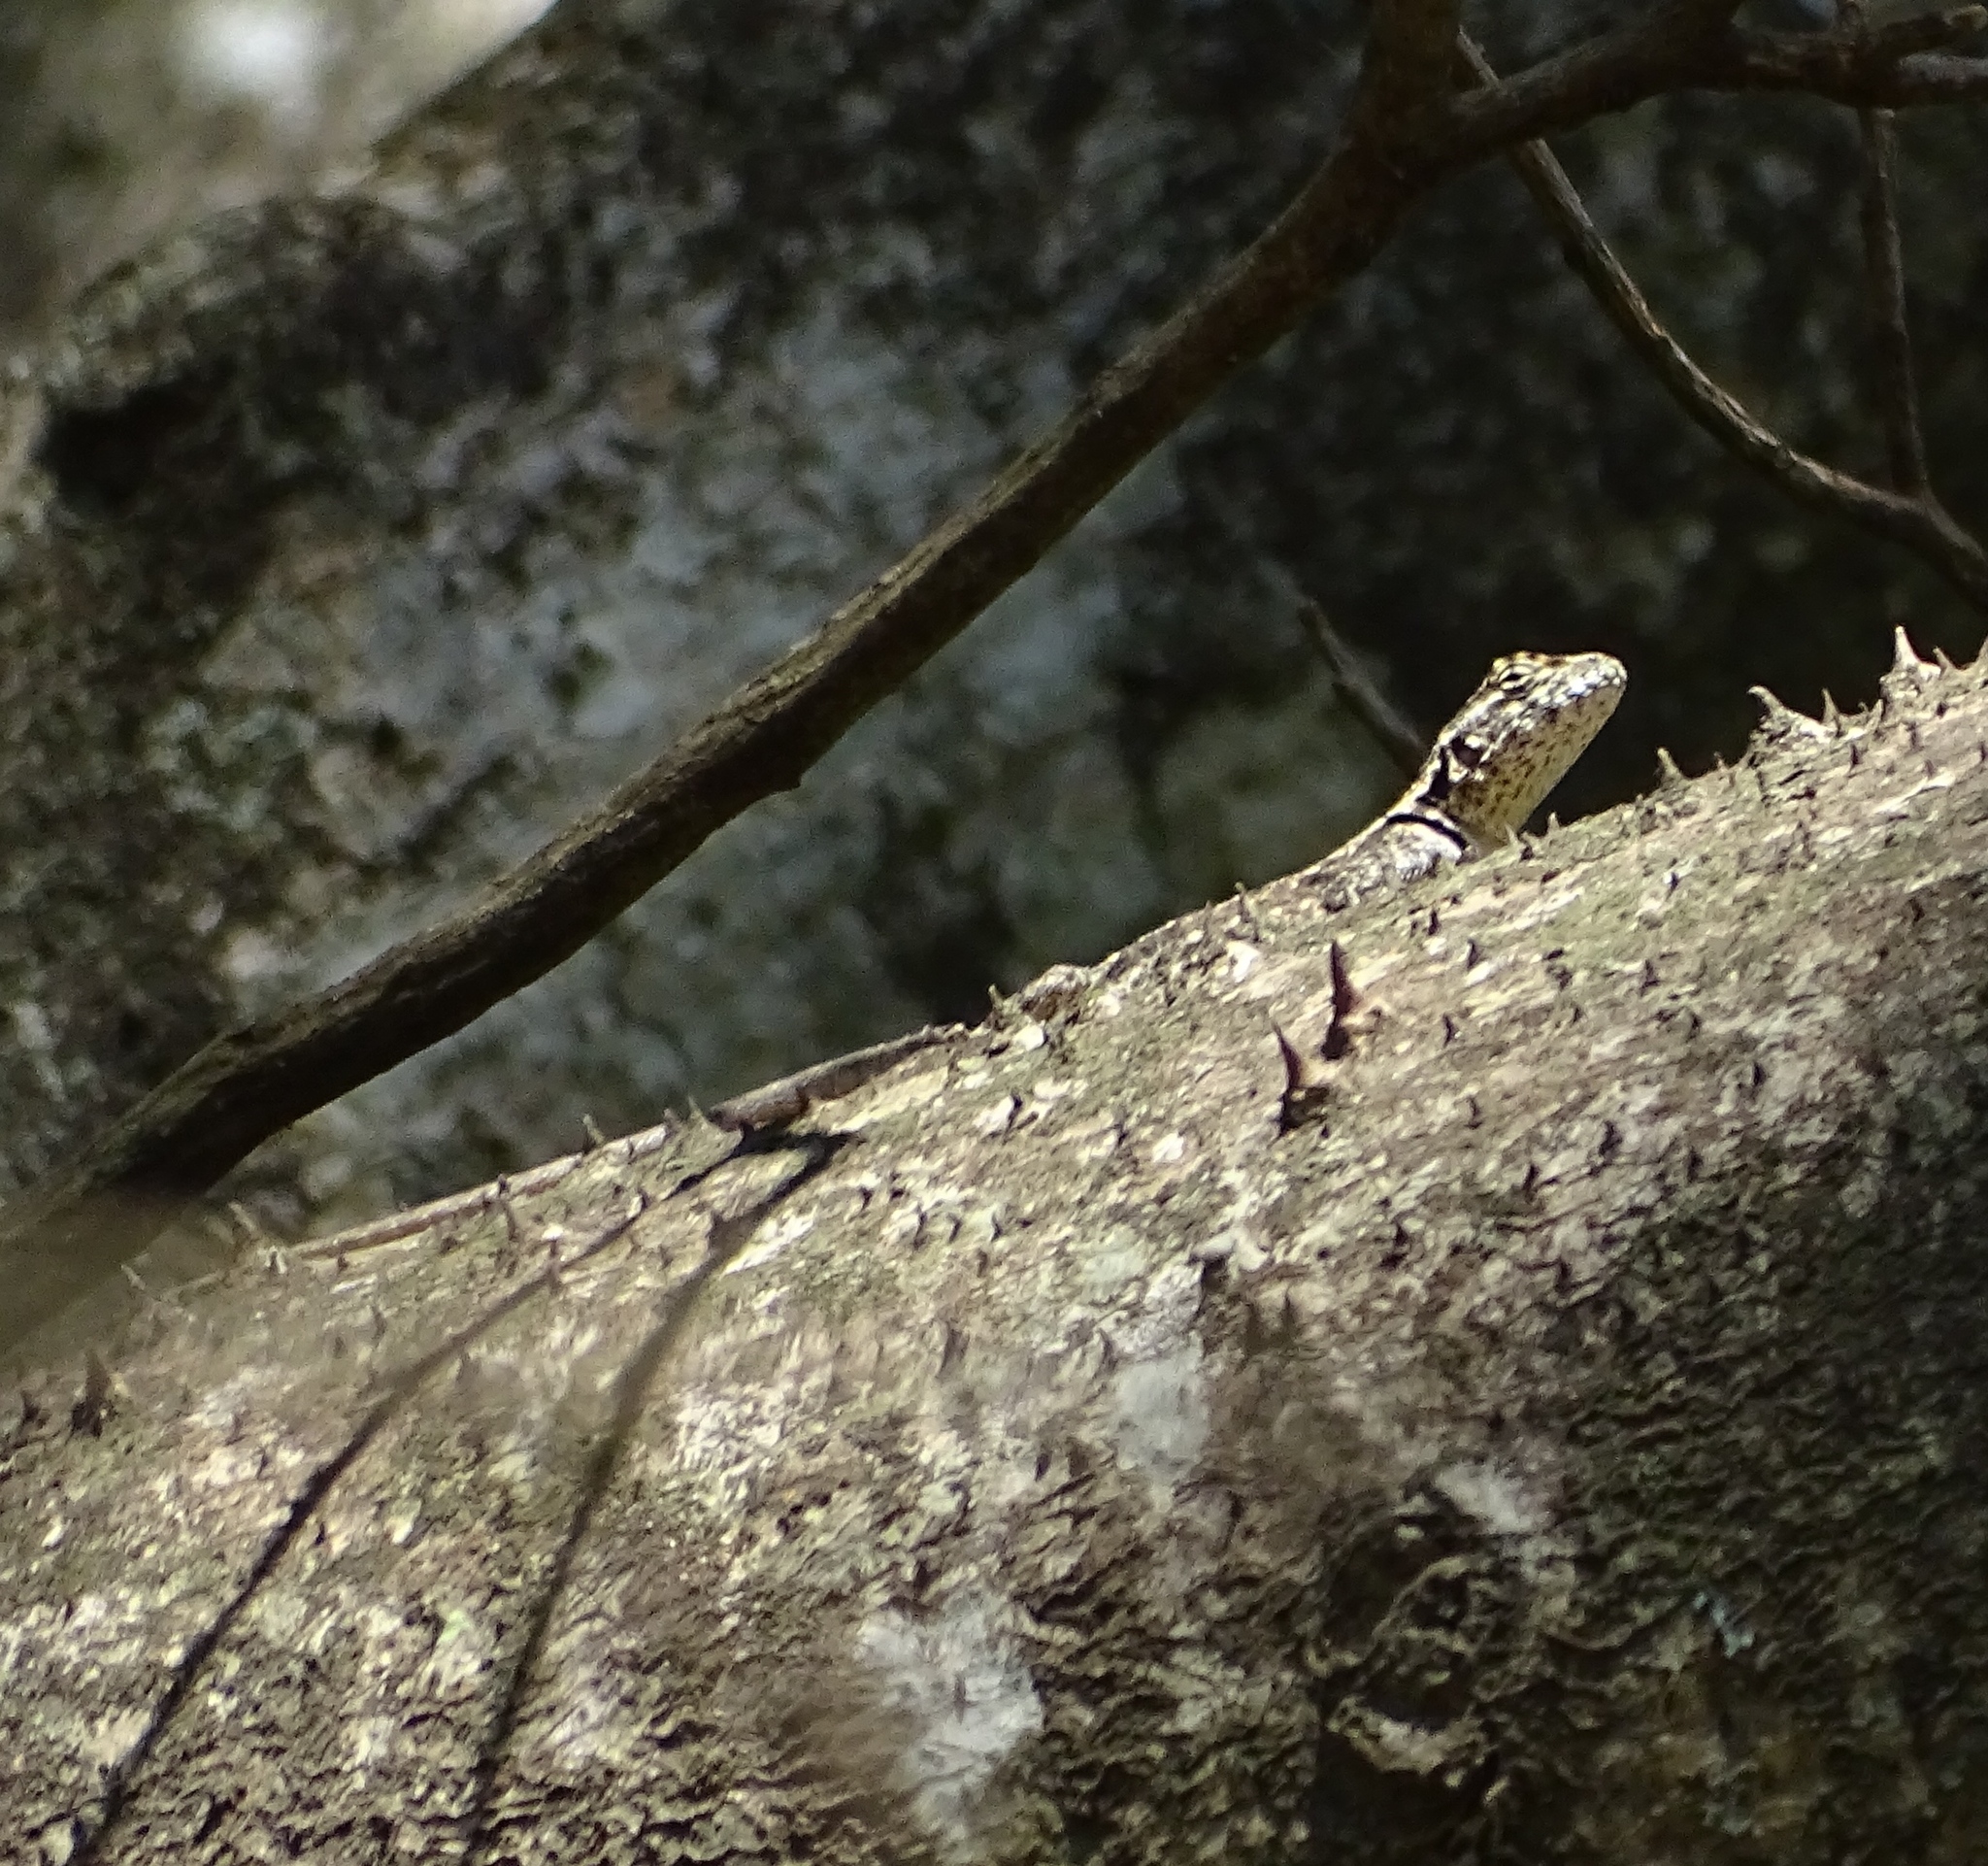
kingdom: Animalia
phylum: Chordata
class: Squamata
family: Tropiduridae
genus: Tropidurus
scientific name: Tropidurus spinulosus
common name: Spiny lava lizard
